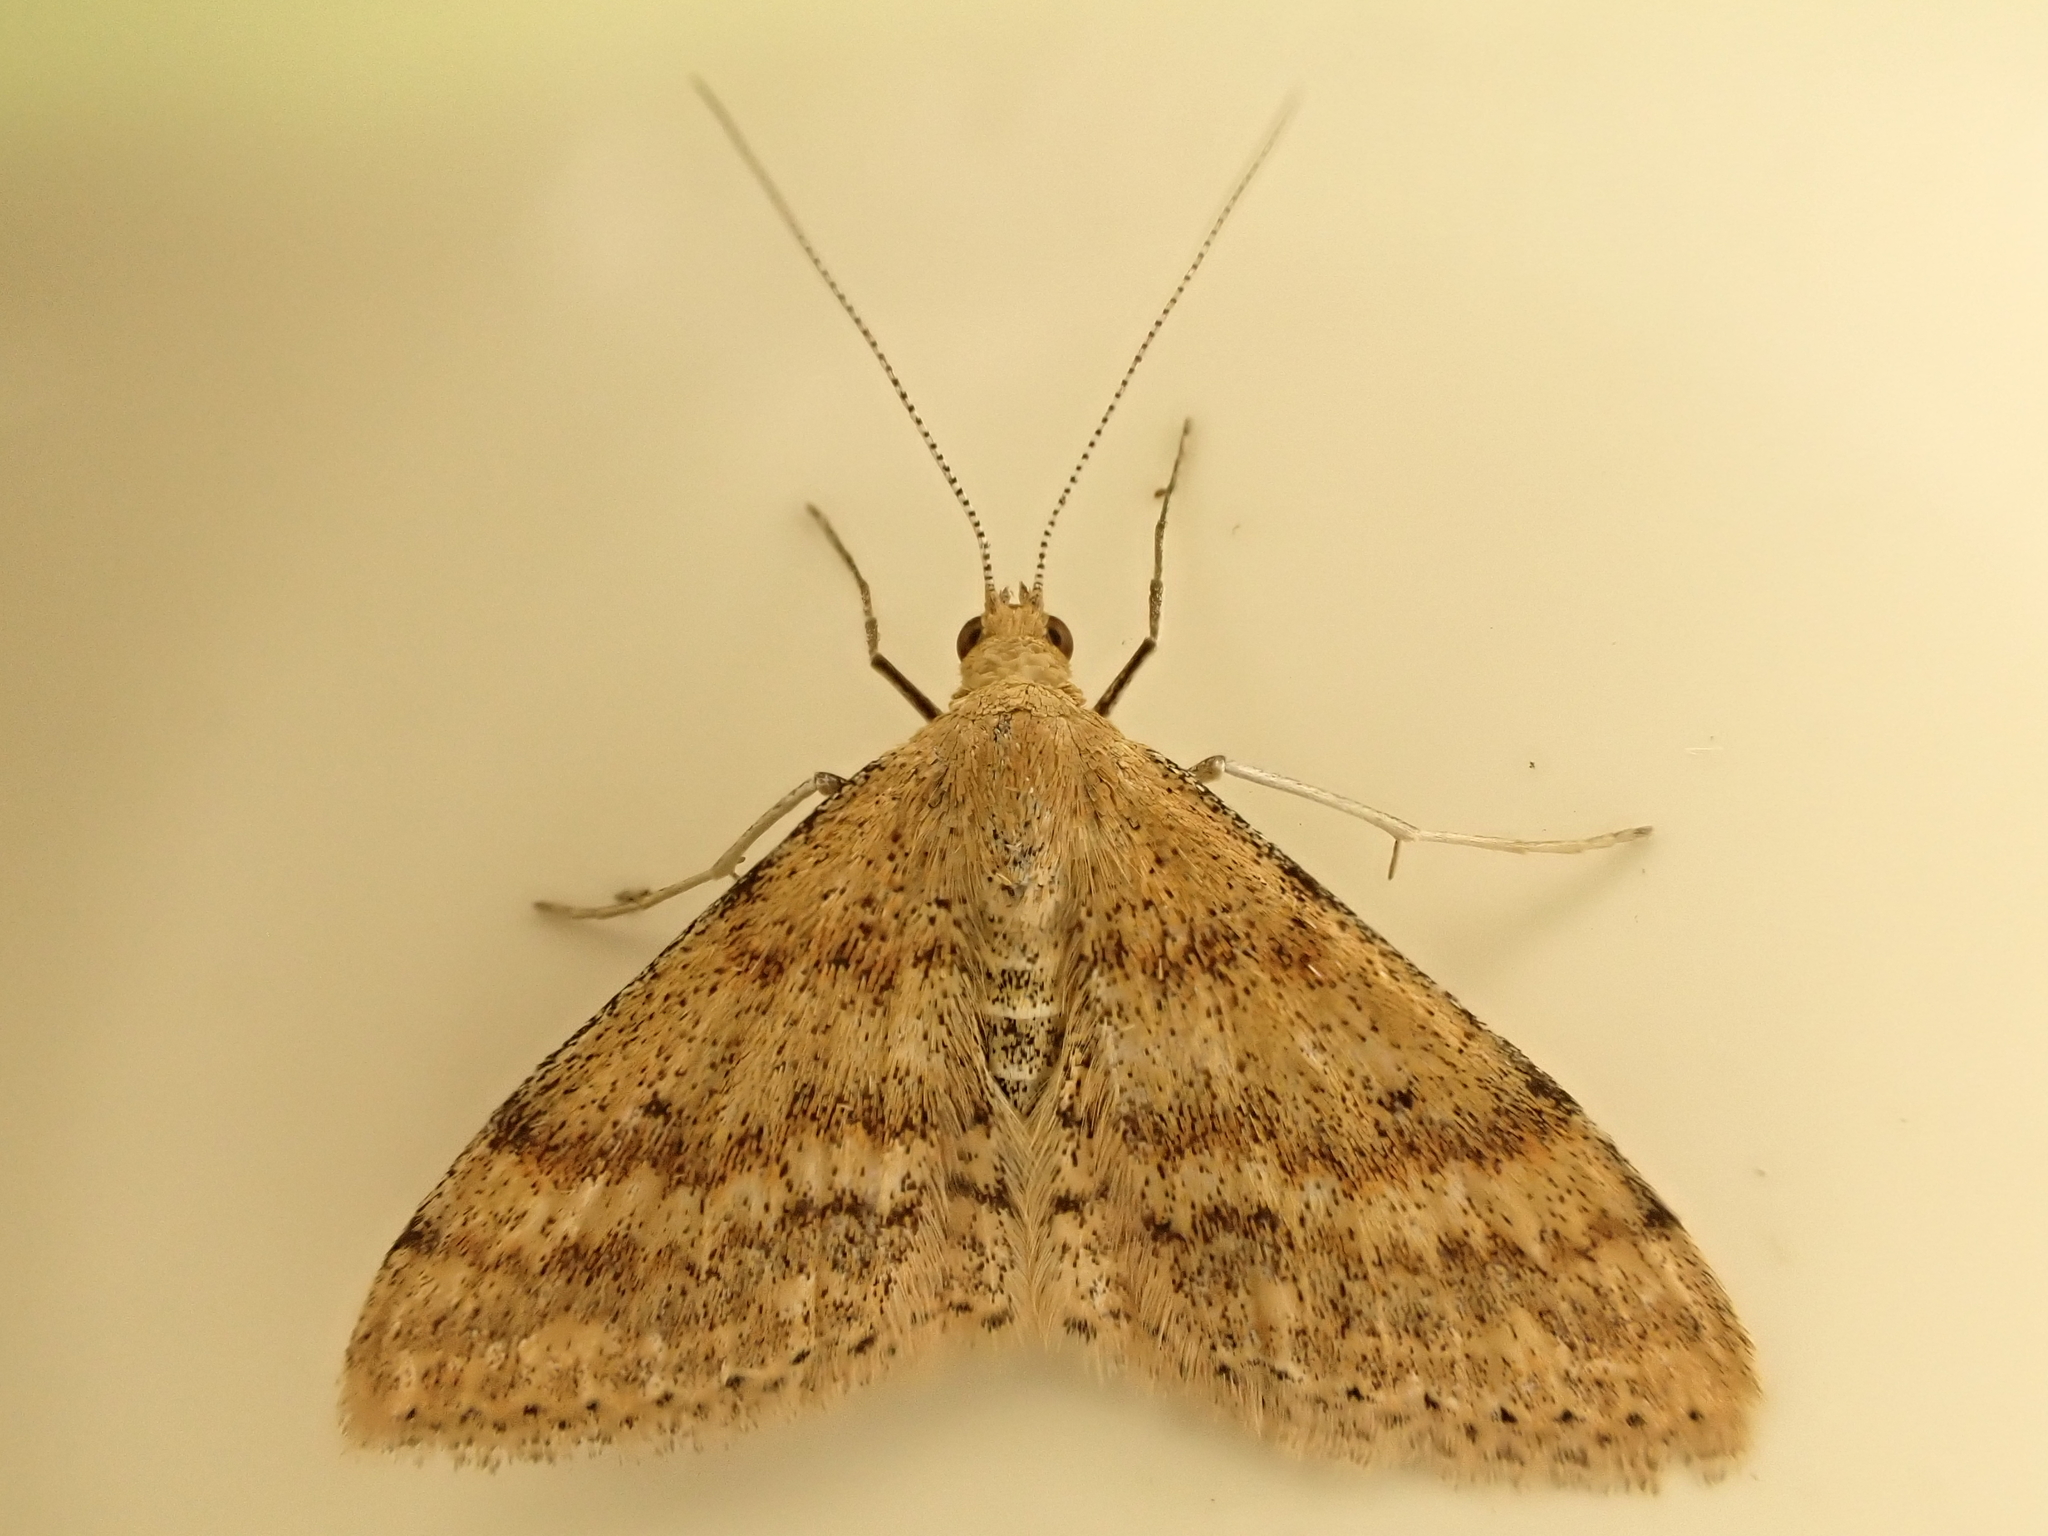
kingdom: Animalia
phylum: Arthropoda
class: Insecta
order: Lepidoptera
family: Geometridae
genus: Scopula
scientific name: Scopula rubraria
